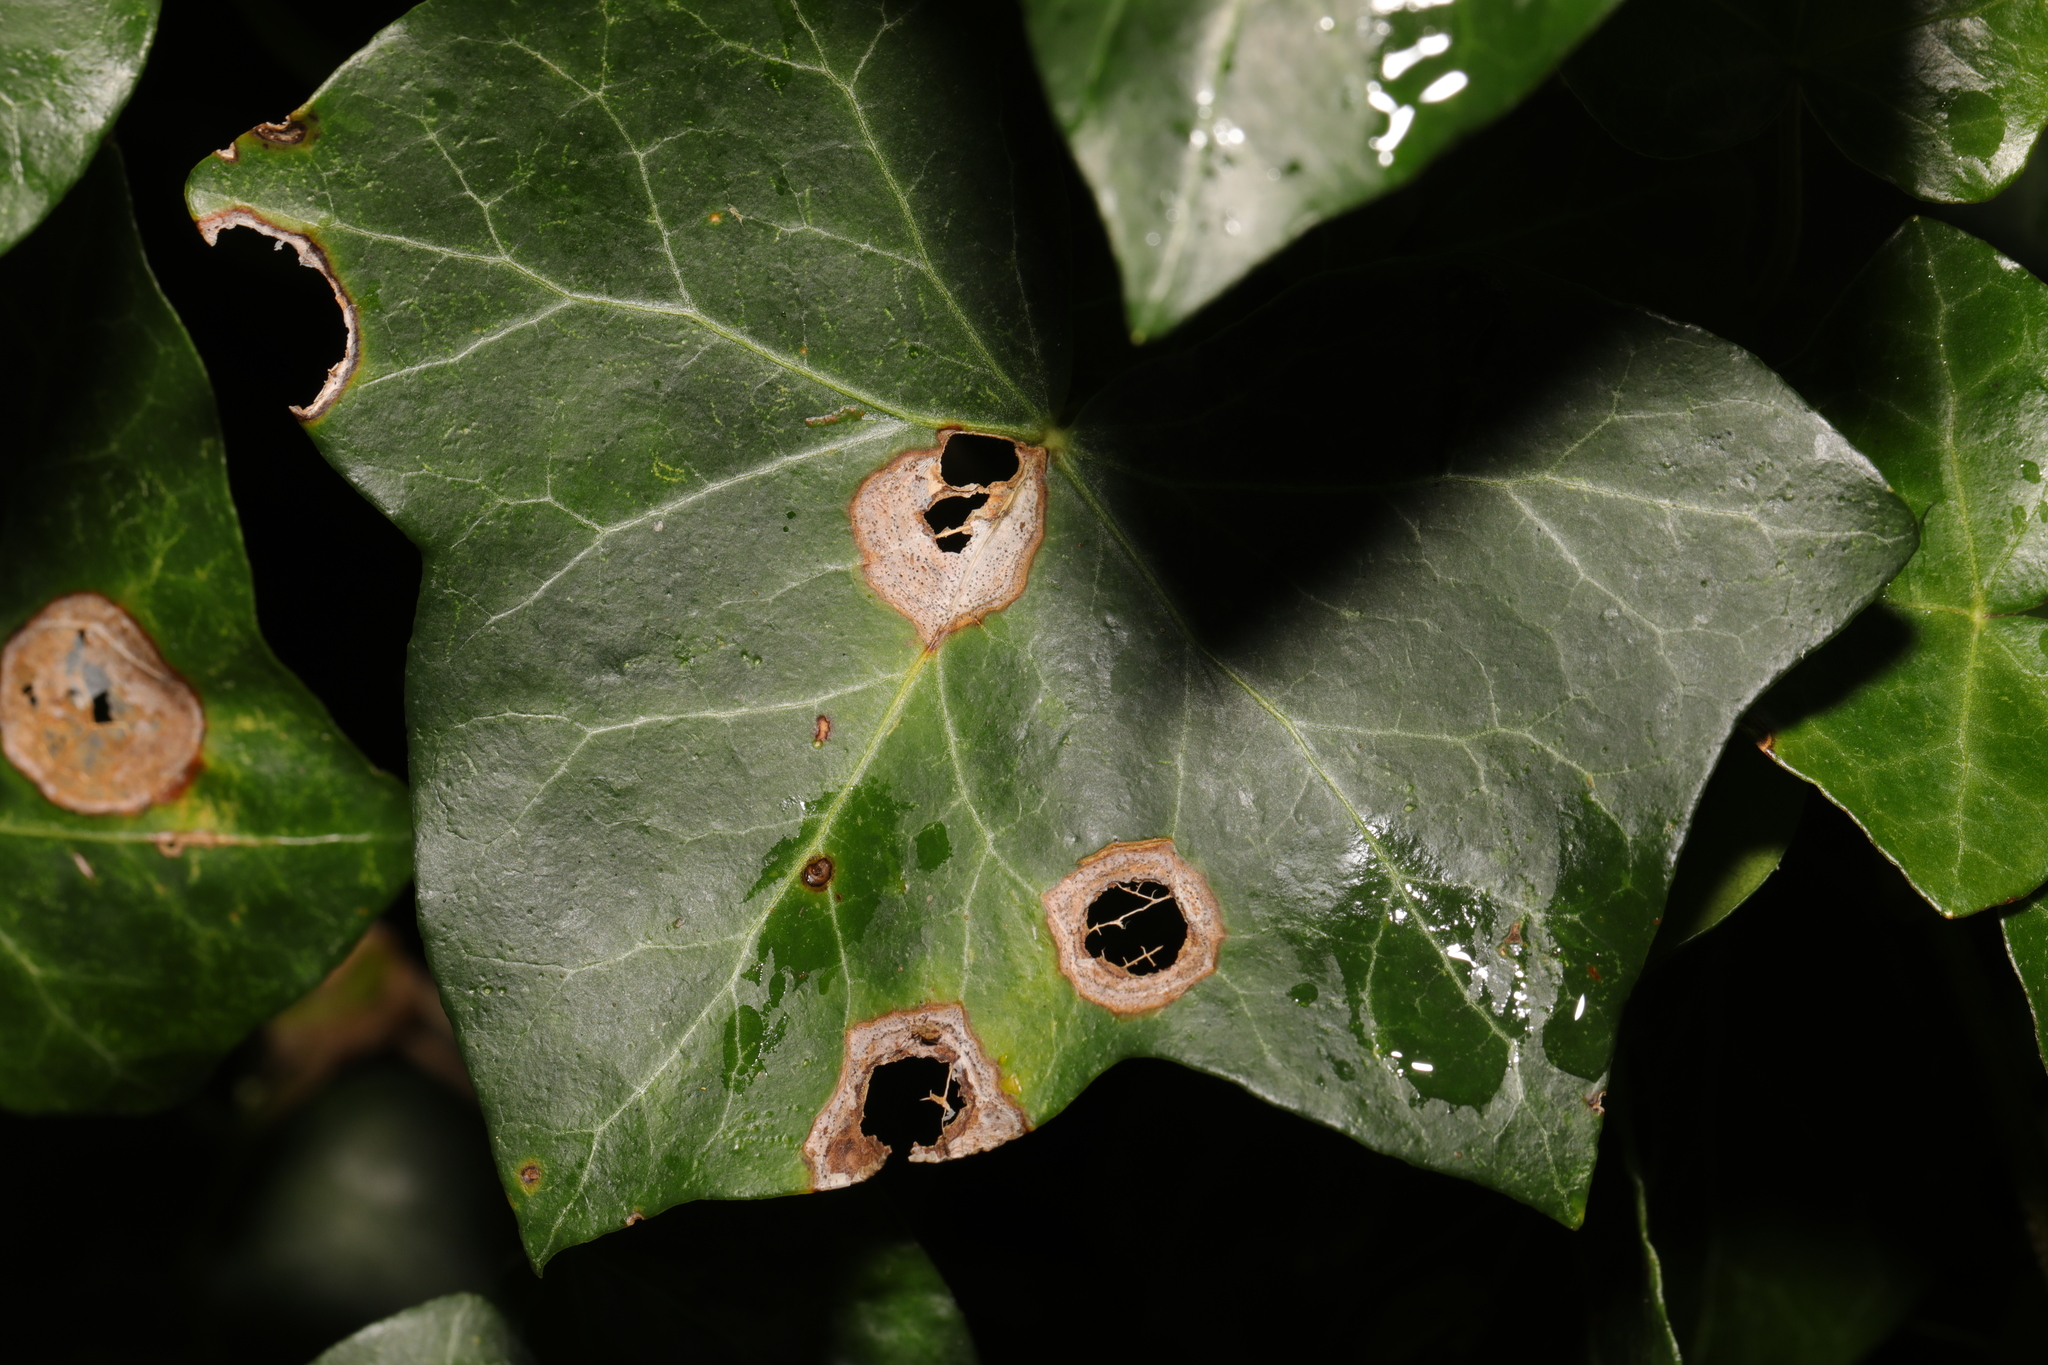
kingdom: Fungi
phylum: Ascomycota
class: Dothideomycetes
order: Pleosporales
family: Didymellaceae
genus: Boeremia
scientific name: Boeremia hedericola
